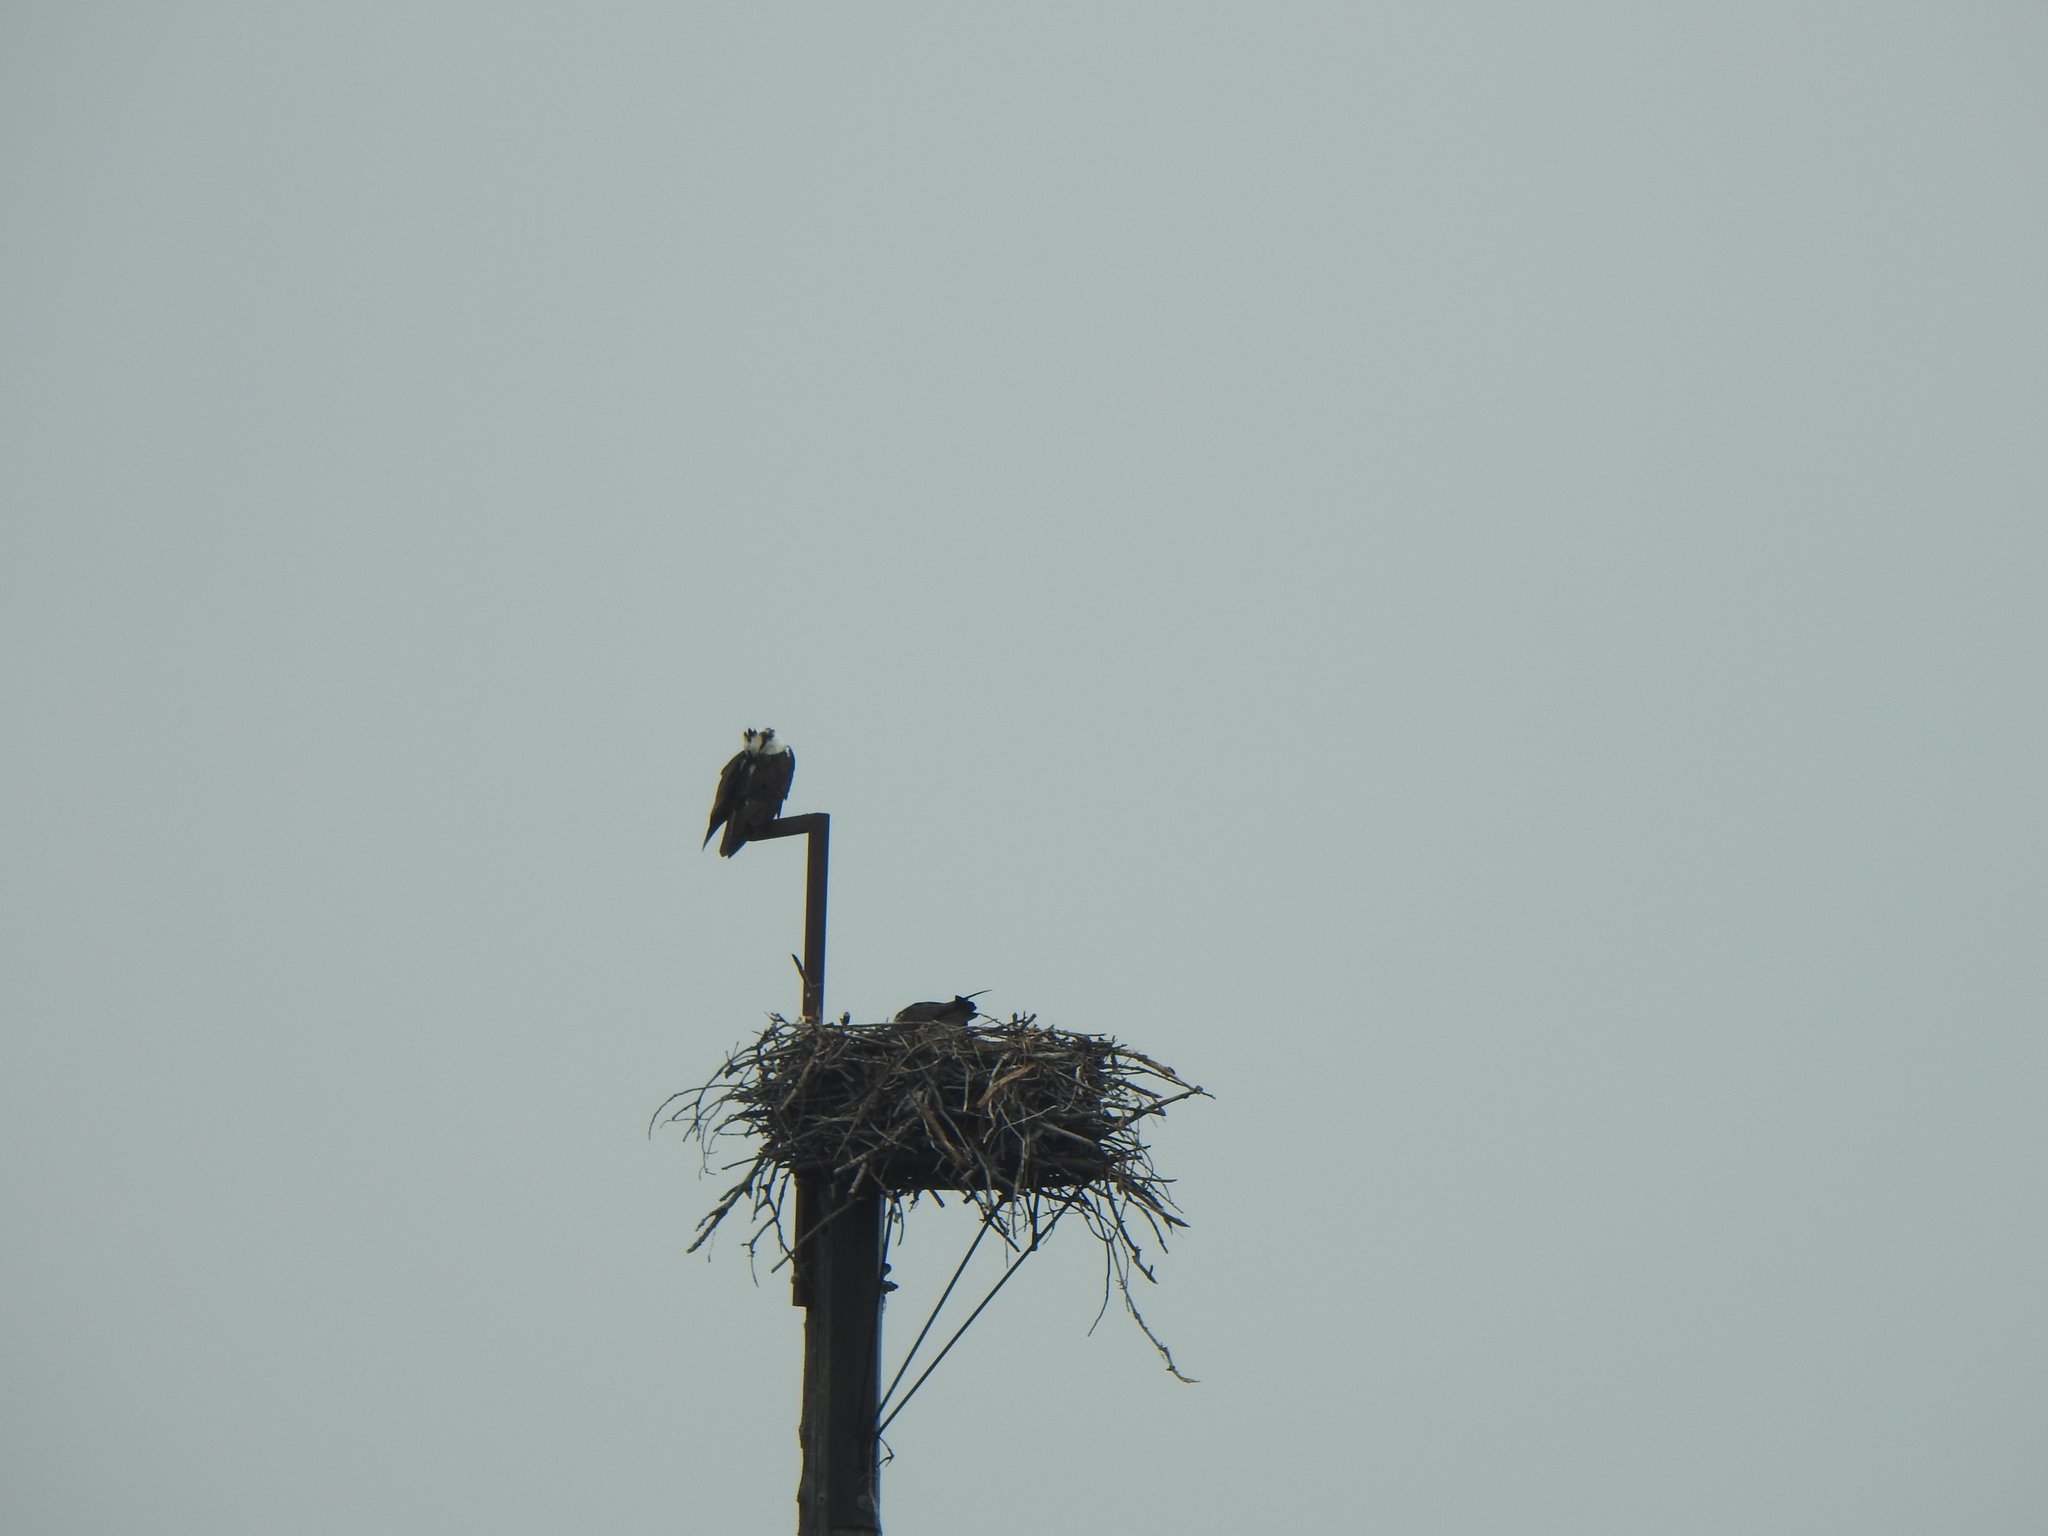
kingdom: Animalia
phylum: Chordata
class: Aves
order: Accipitriformes
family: Pandionidae
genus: Pandion
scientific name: Pandion haliaetus
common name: Osprey
